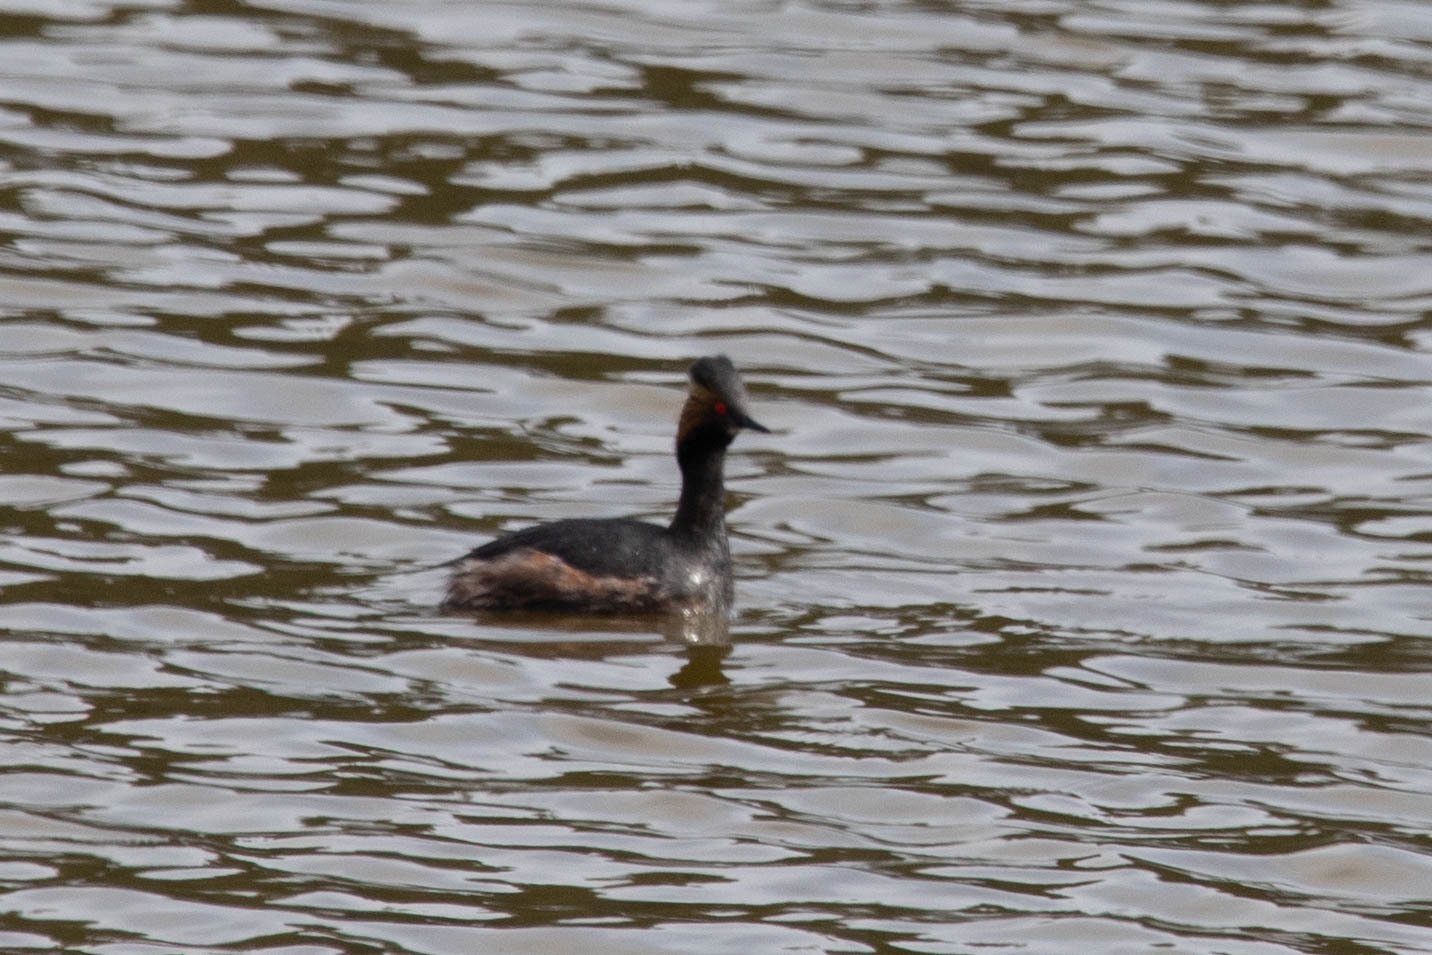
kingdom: Animalia
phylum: Chordata
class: Aves
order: Podicipediformes
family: Podicipedidae
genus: Podiceps
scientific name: Podiceps nigricollis
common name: Black-necked grebe
